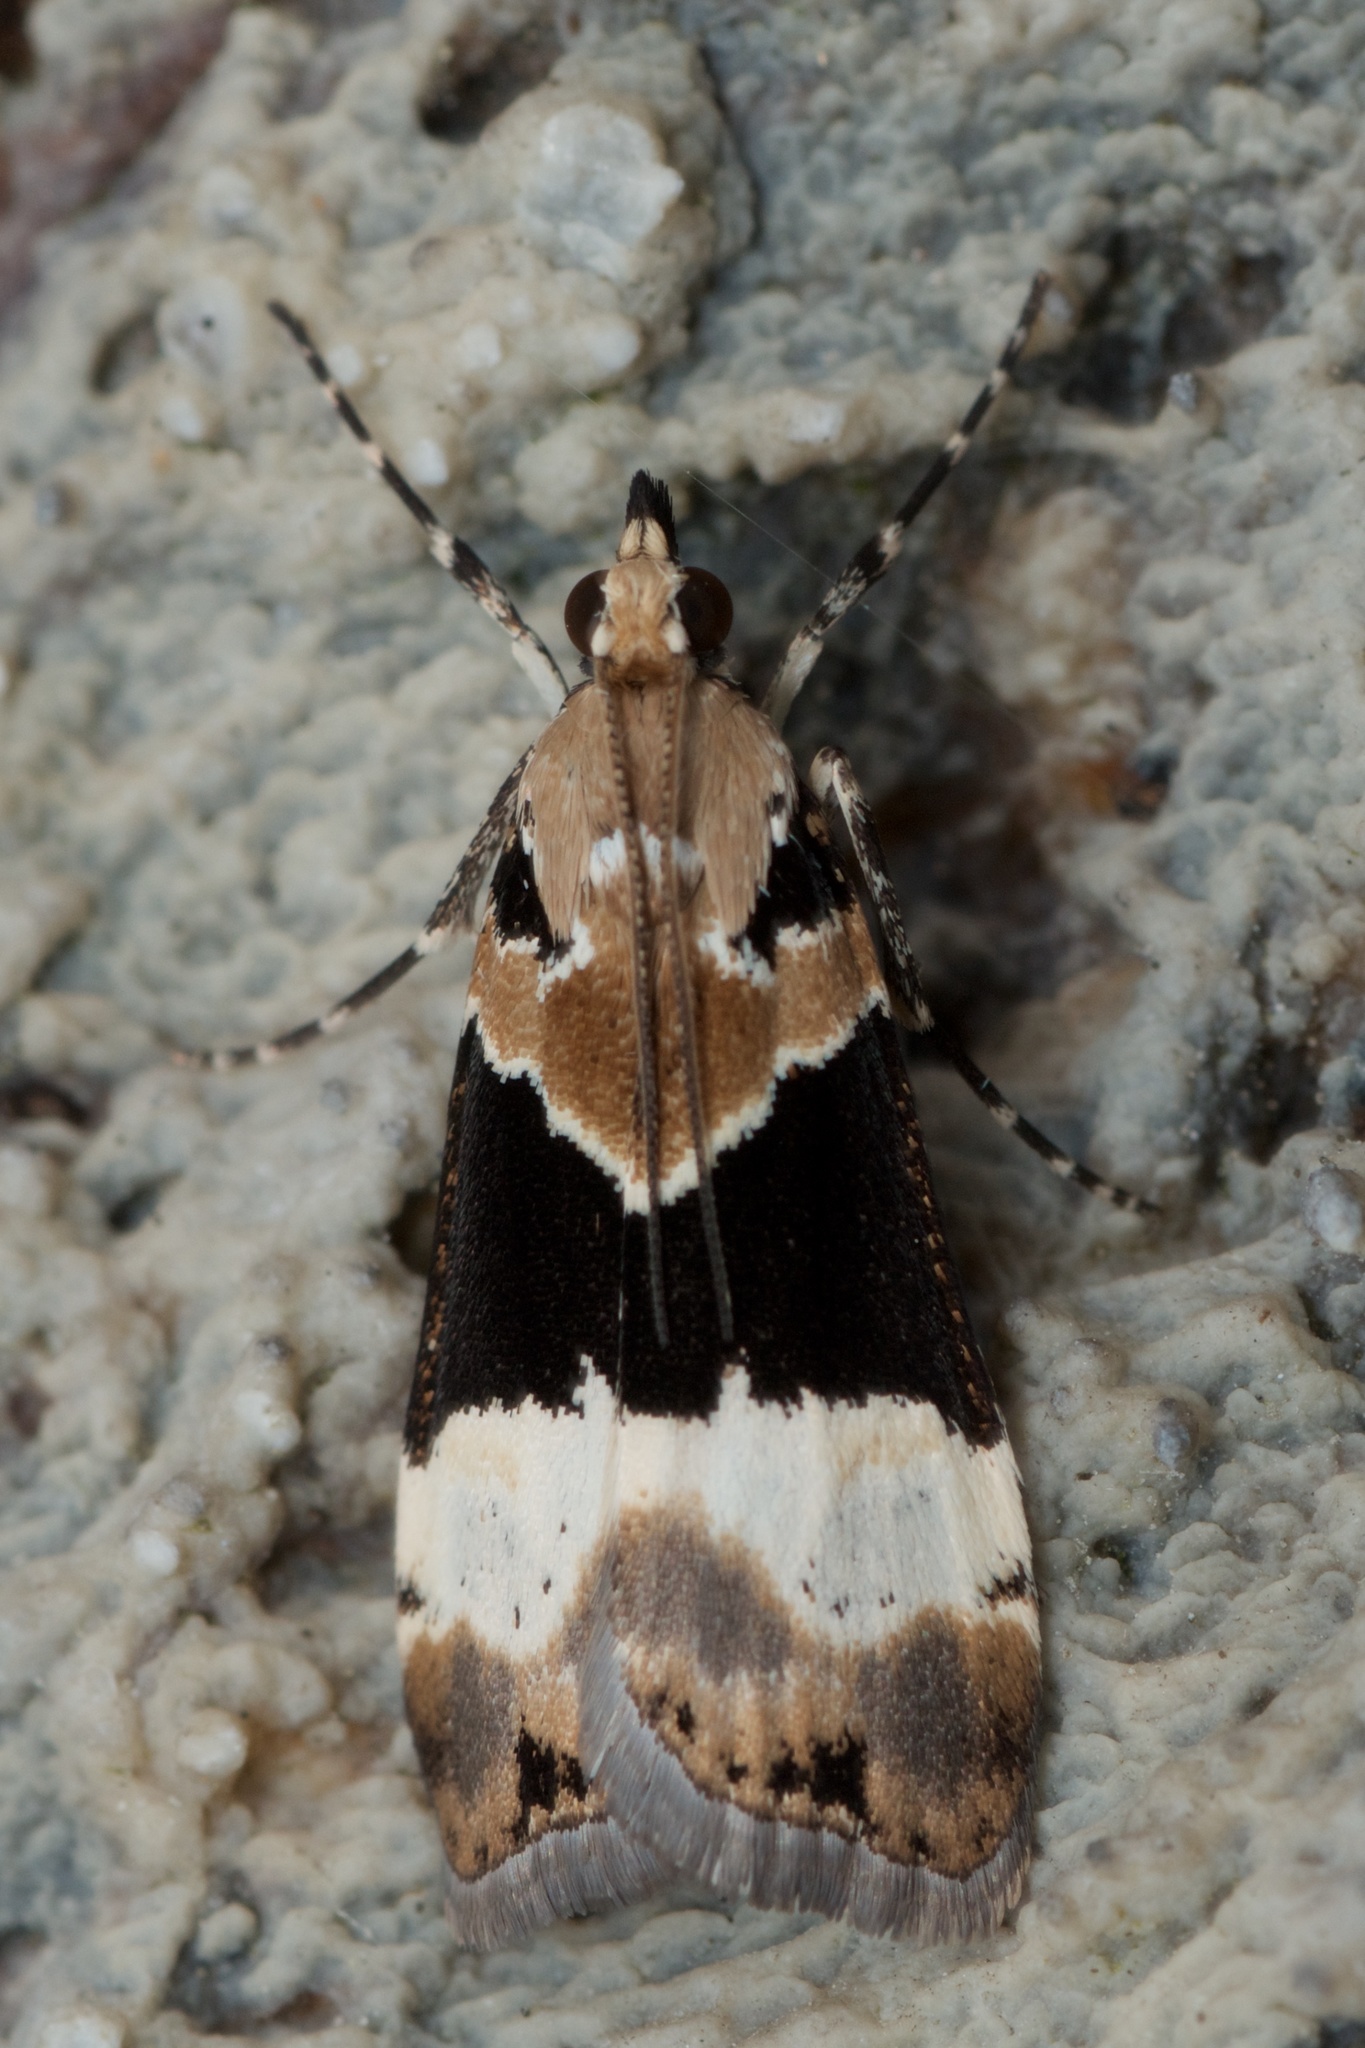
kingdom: Animalia
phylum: Arthropoda
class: Insecta
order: Lepidoptera
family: Crambidae
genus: Eudonia
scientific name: Eudonia aspidota
